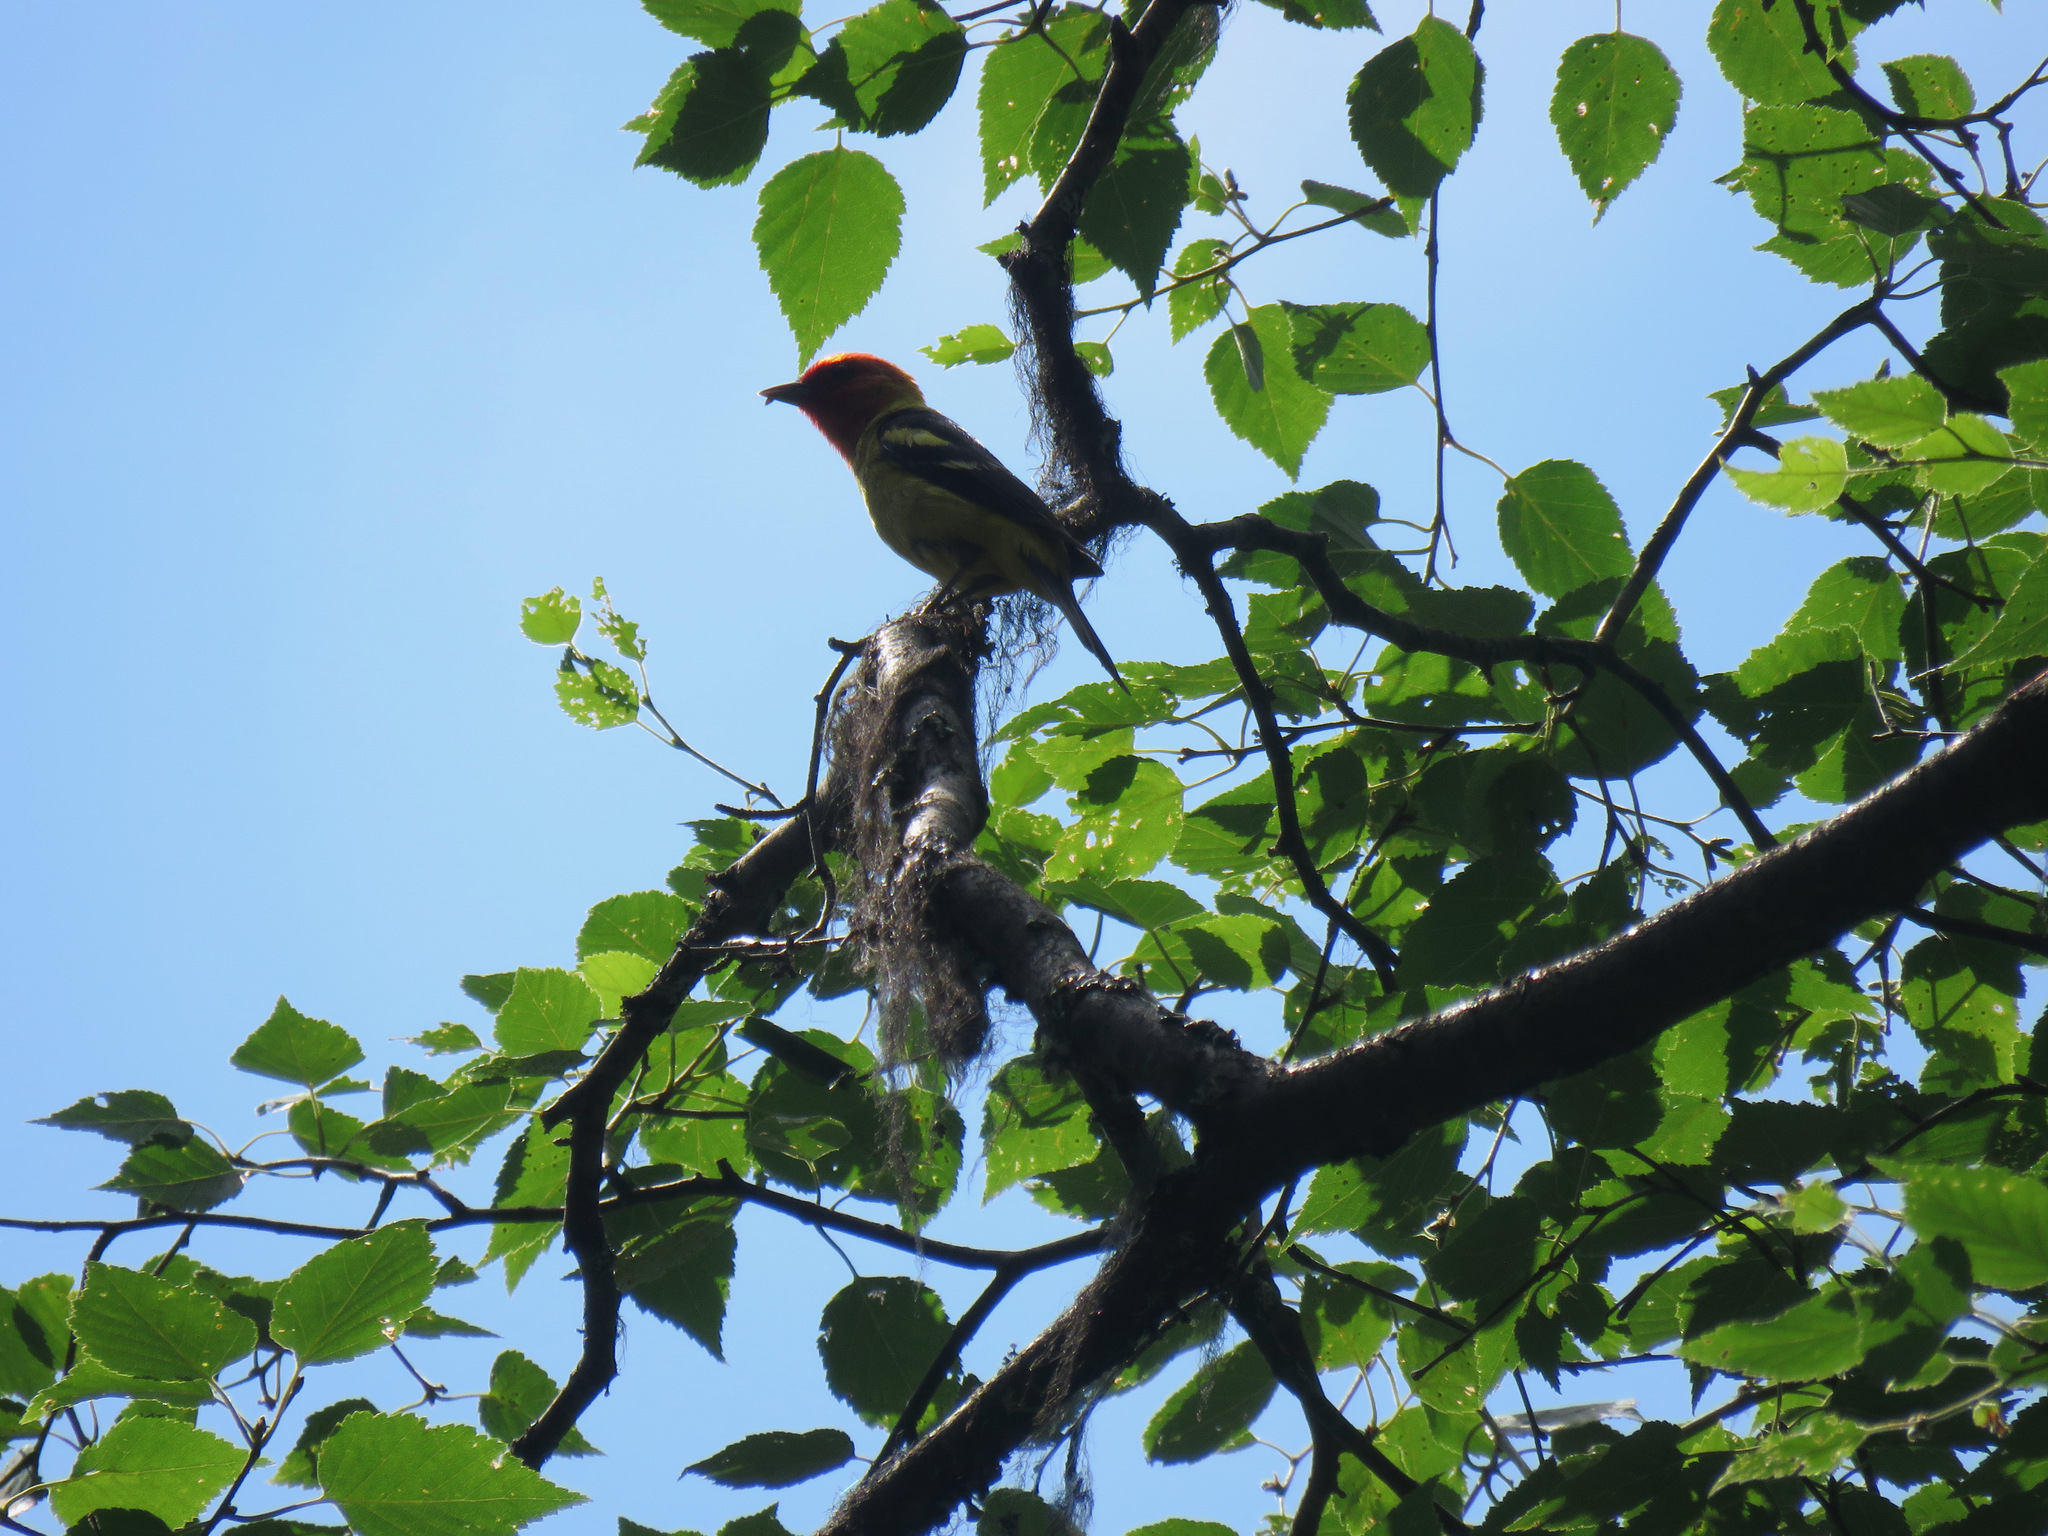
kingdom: Animalia
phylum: Chordata
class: Aves
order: Passeriformes
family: Cardinalidae
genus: Piranga
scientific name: Piranga ludoviciana
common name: Western tanager
